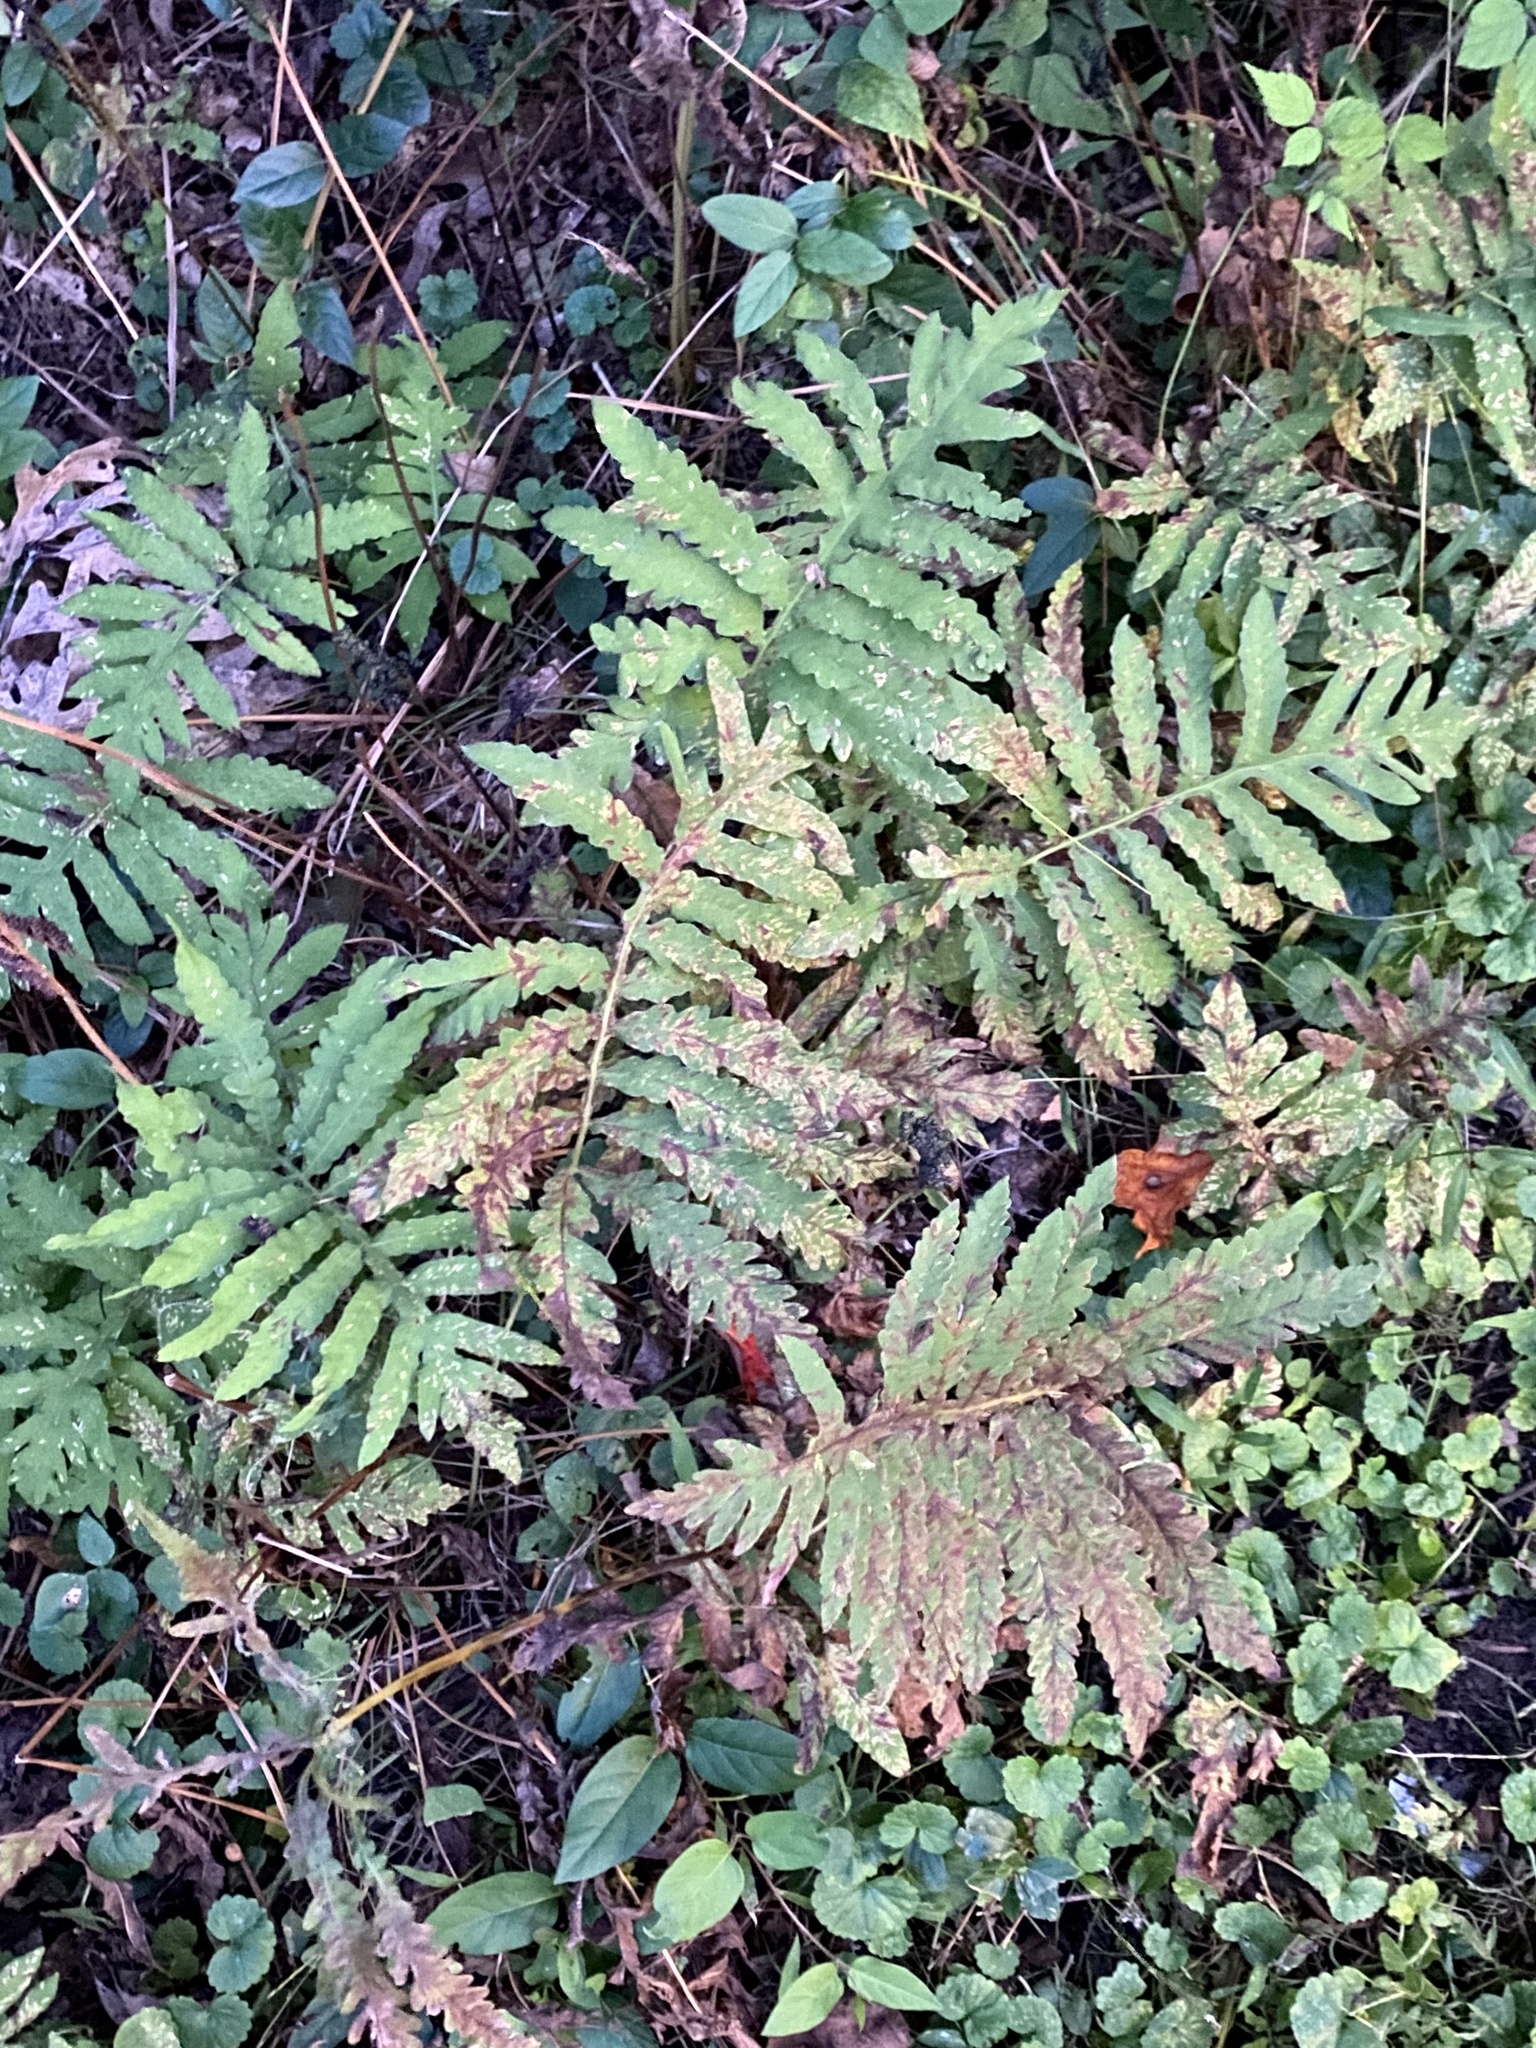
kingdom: Plantae
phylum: Tracheophyta
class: Polypodiopsida
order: Polypodiales
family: Onocleaceae
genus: Onoclea
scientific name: Onoclea sensibilis
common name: Sensitive fern
